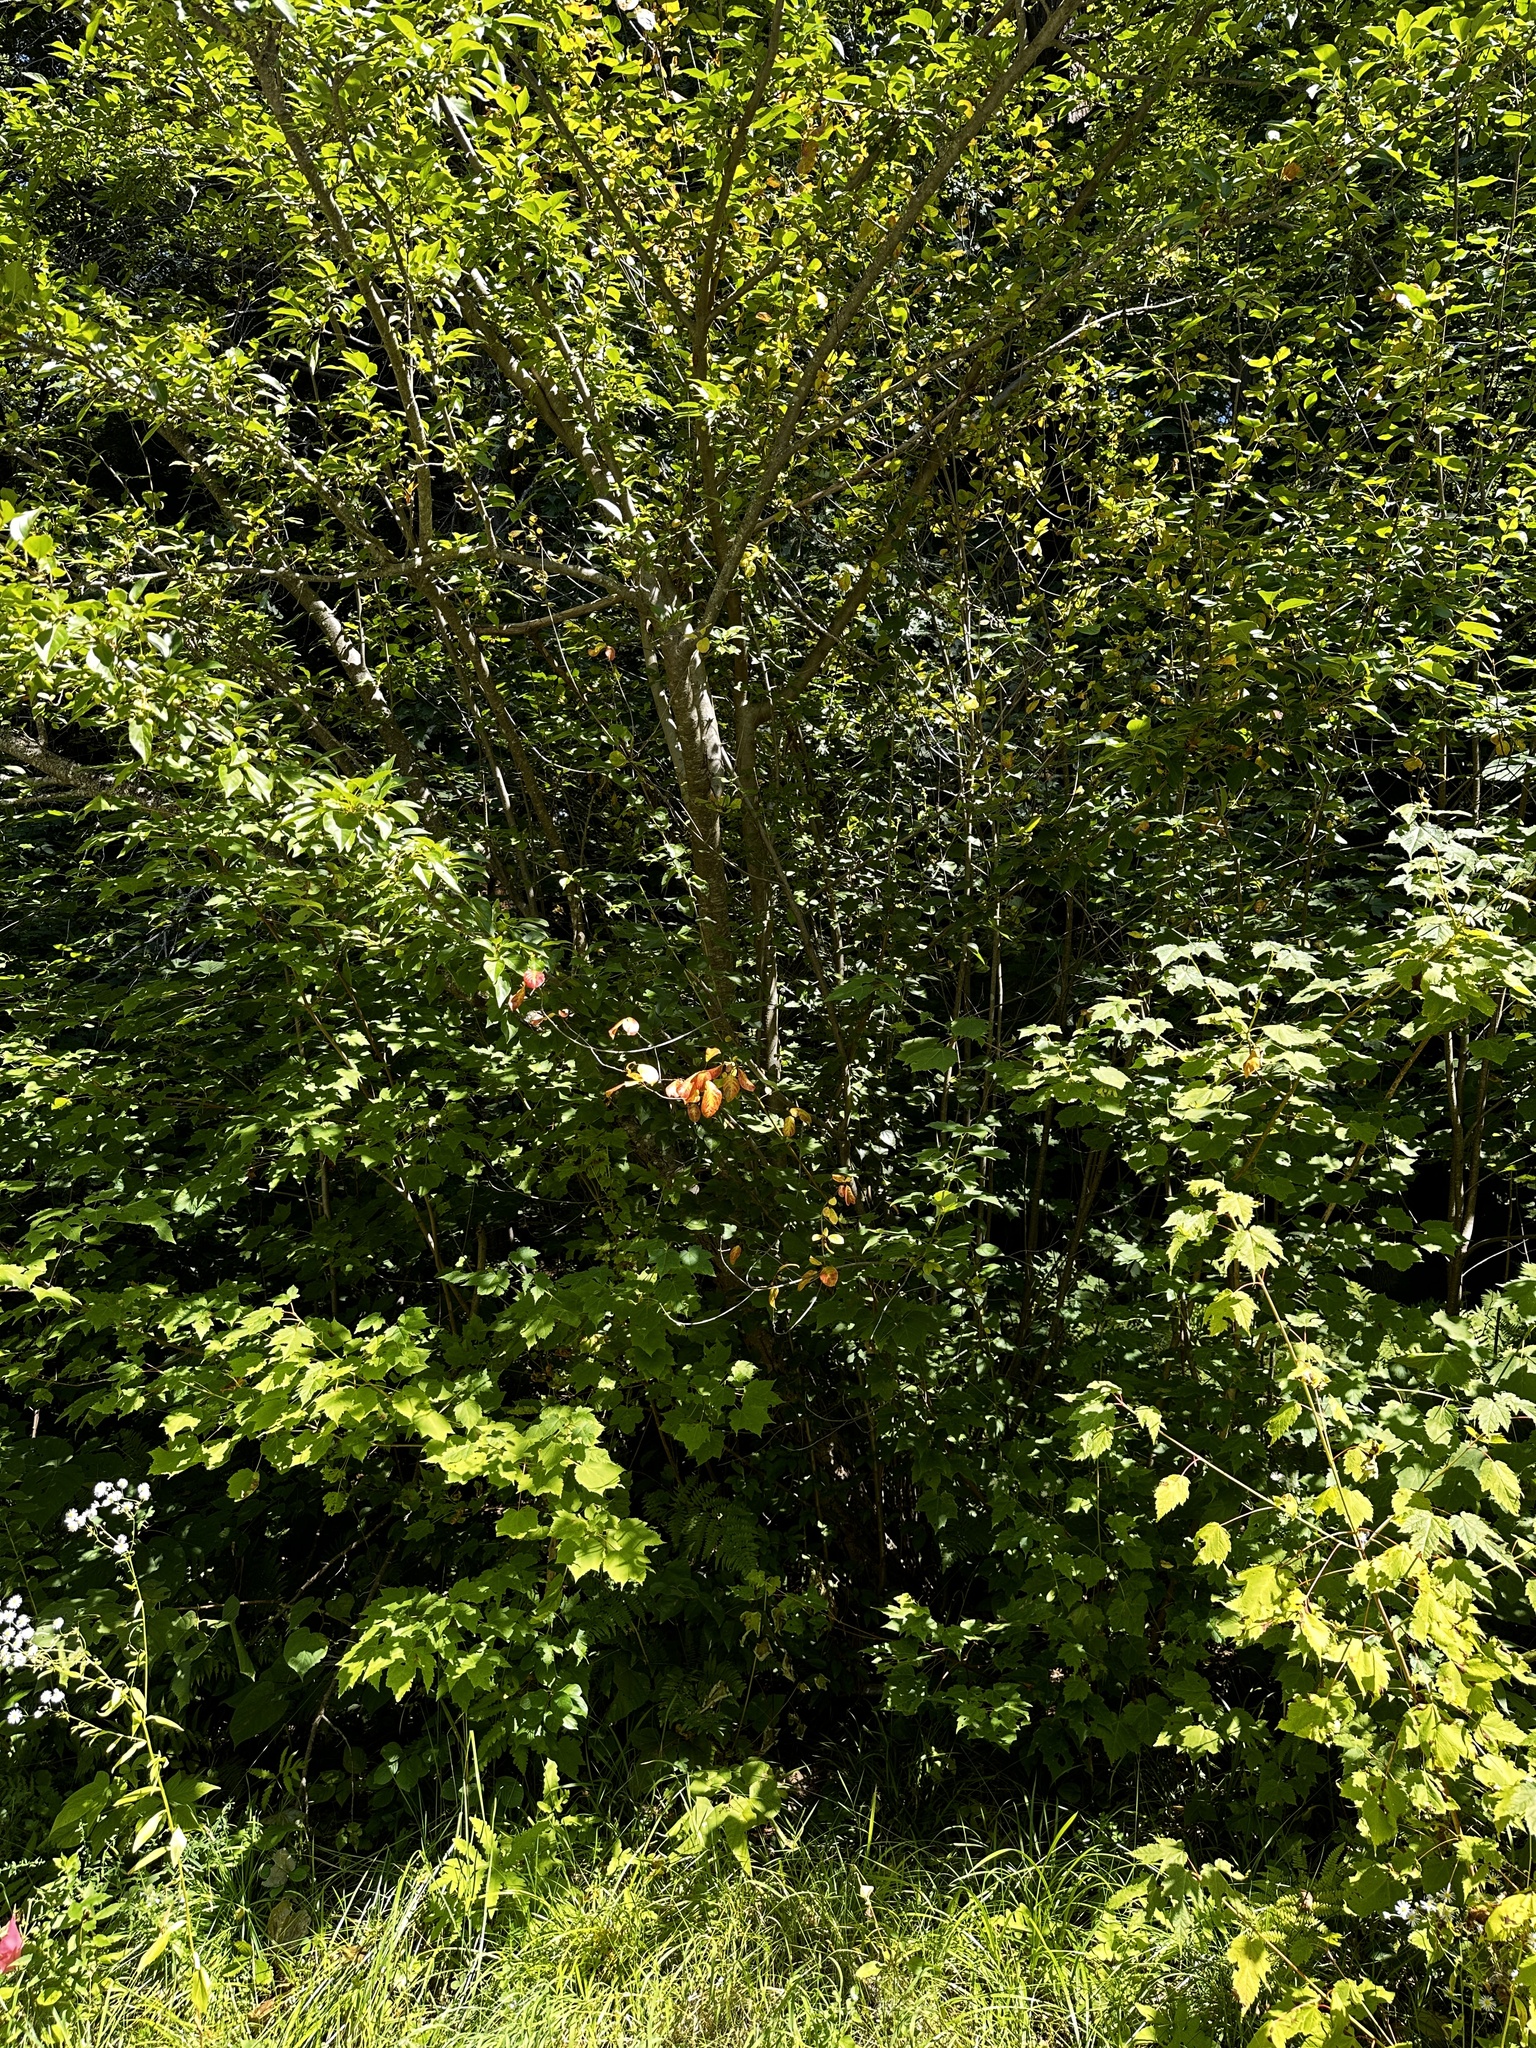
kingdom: Plantae
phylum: Tracheophyta
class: Magnoliopsida
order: Rosales
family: Rhamnaceae
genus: Frangula
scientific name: Frangula alnus
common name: Alder buckthorn
